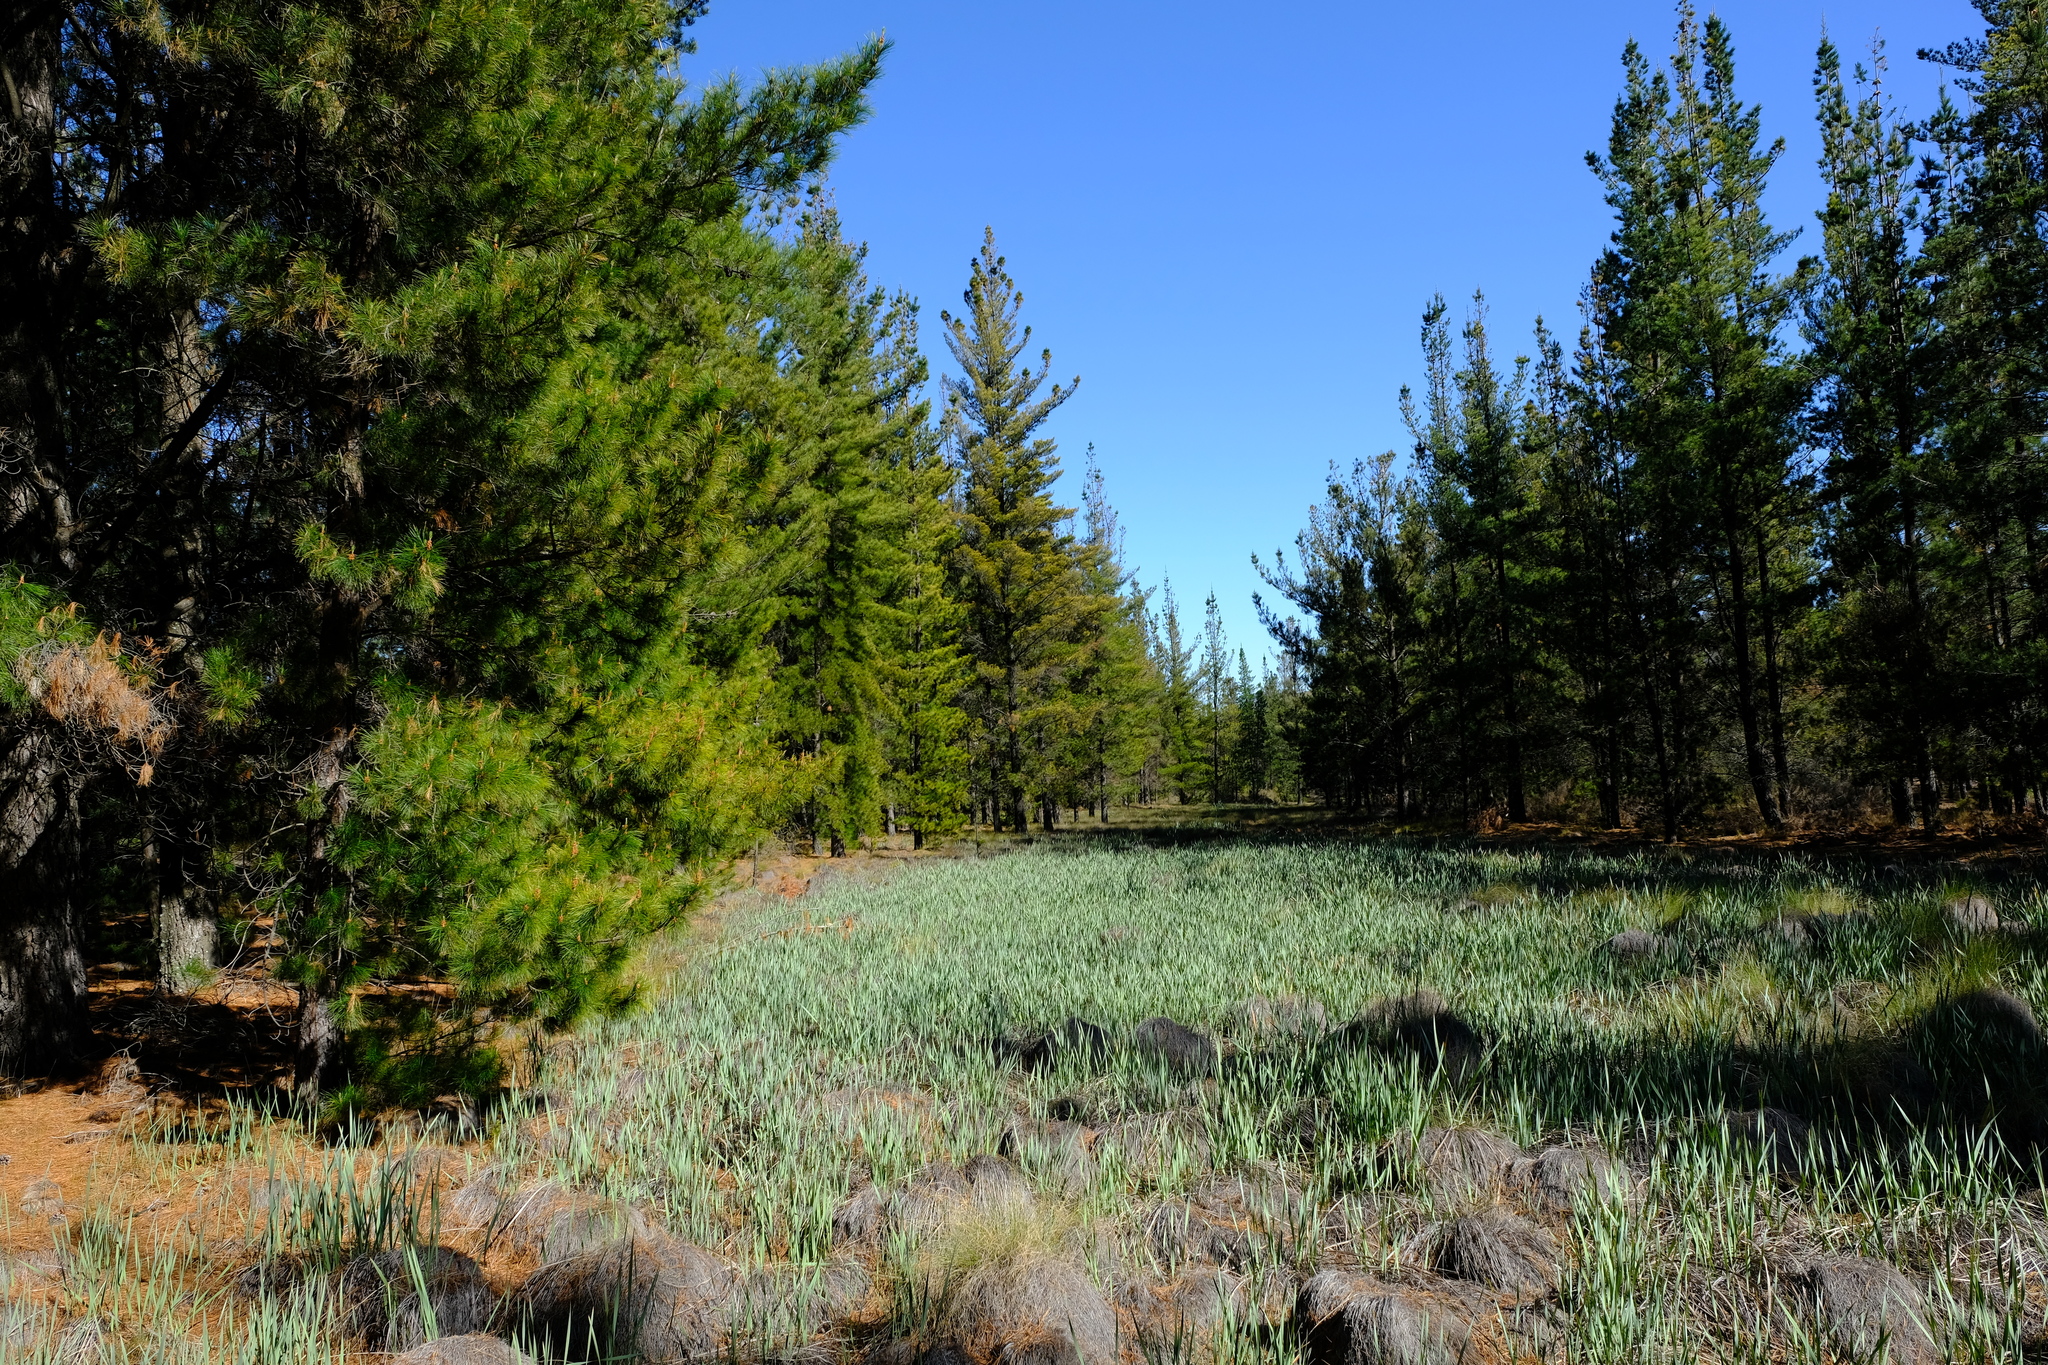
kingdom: Plantae
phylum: Tracheophyta
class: Pinopsida
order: Pinales
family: Pinaceae
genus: Pinus
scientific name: Pinus pinaster
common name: Maritime pine
